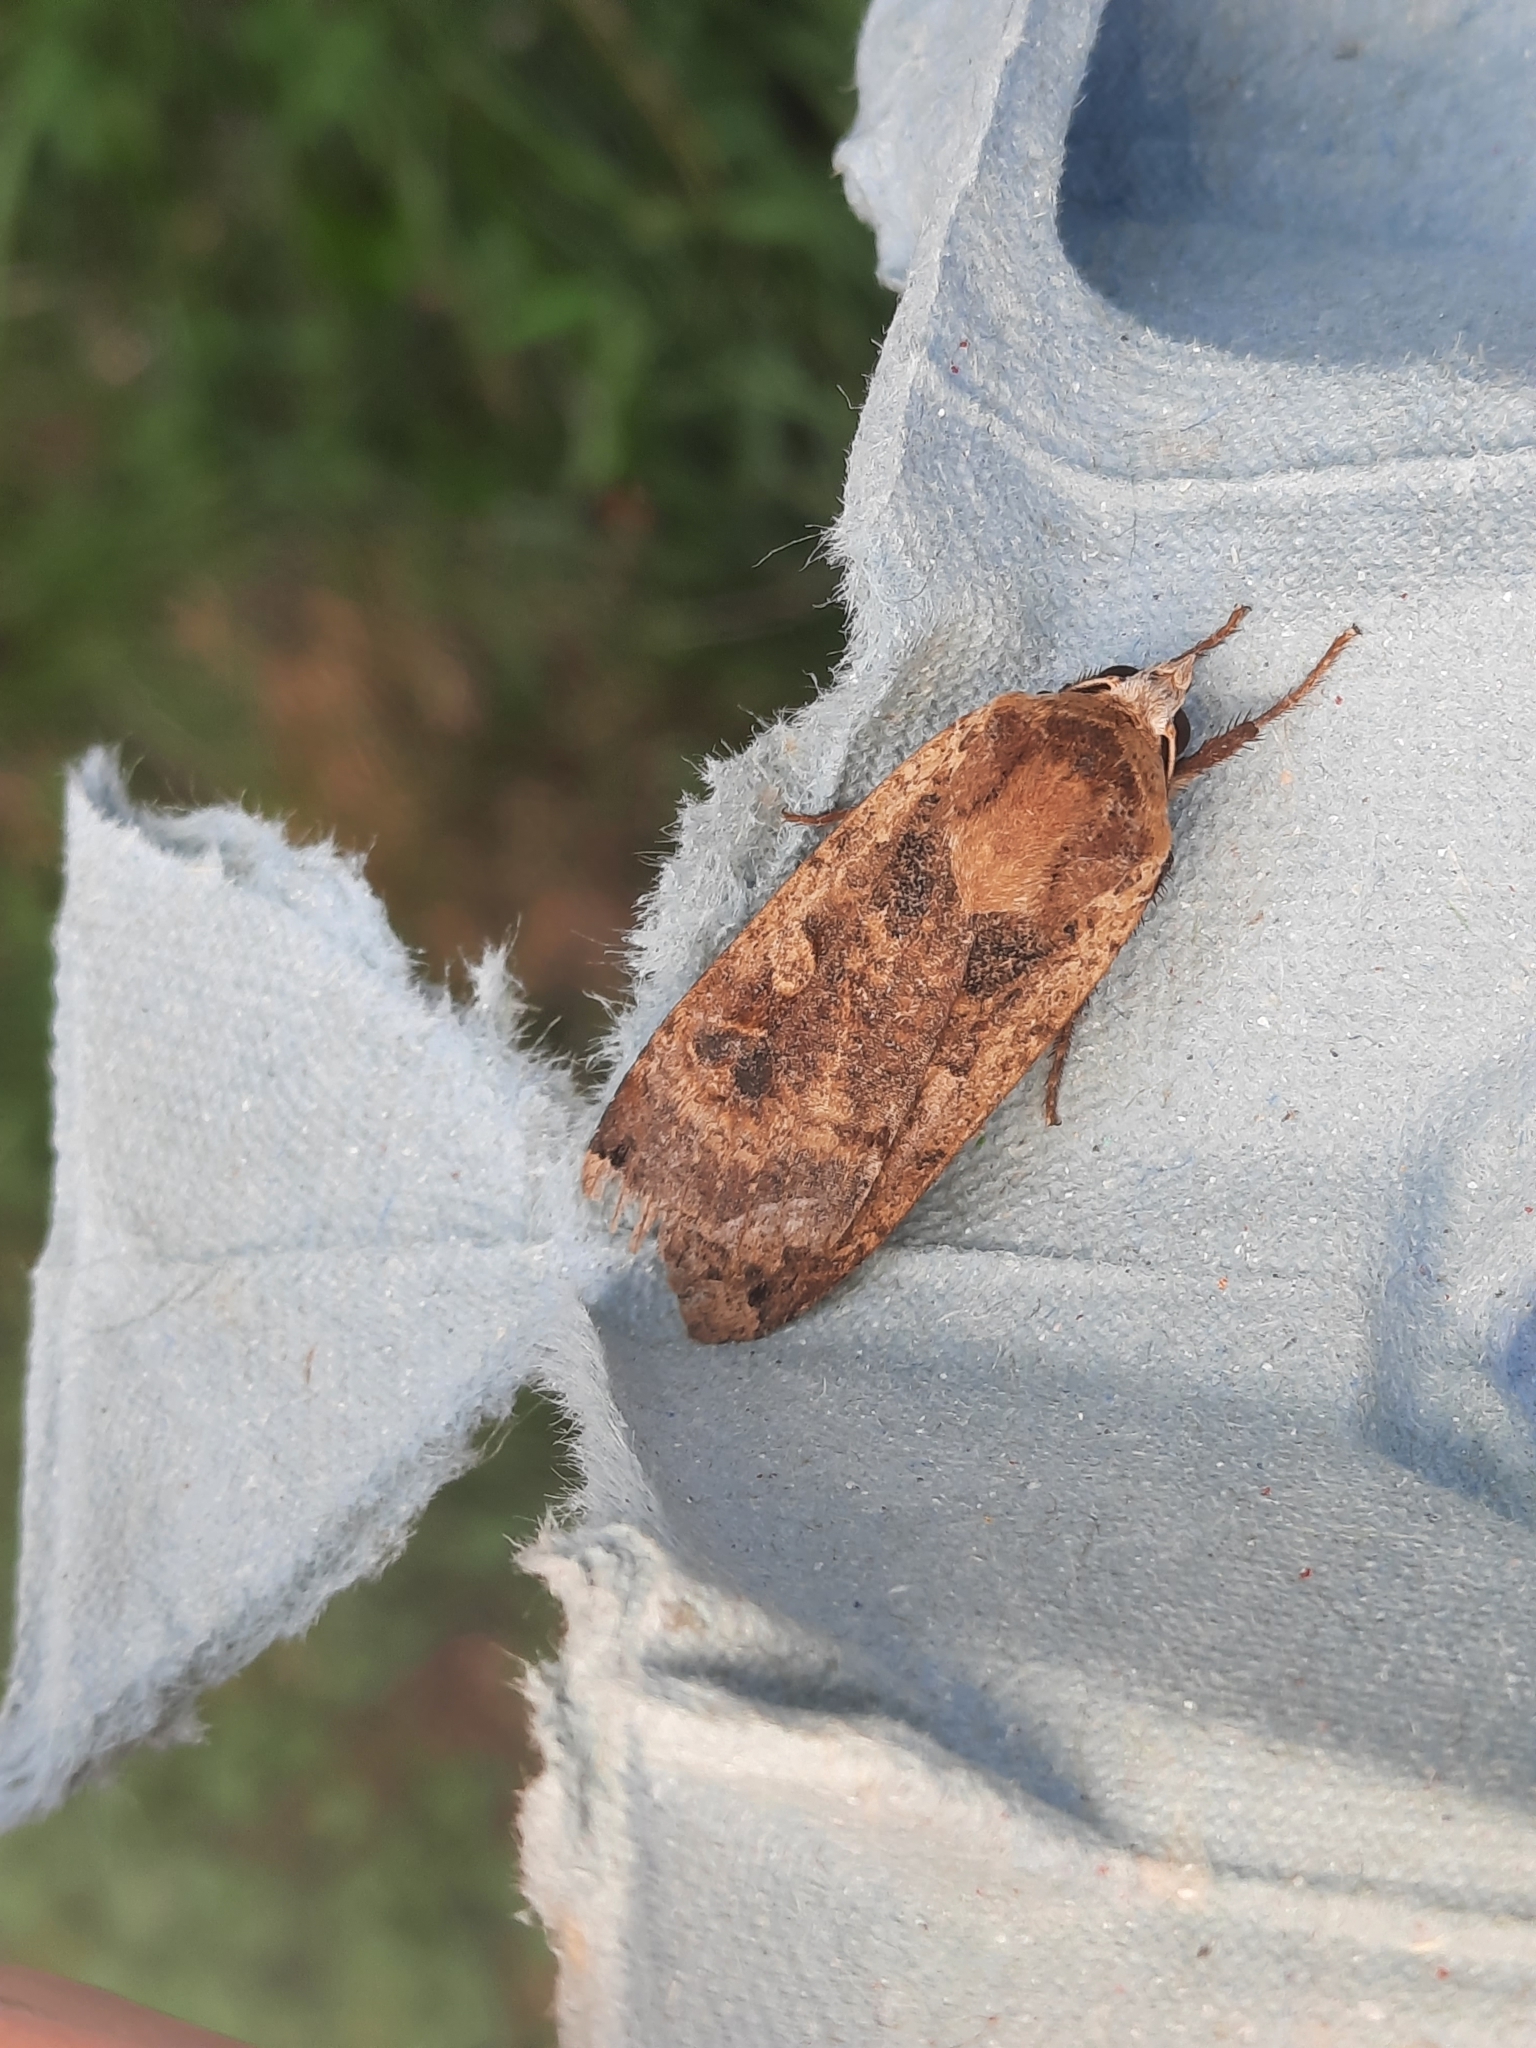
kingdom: Animalia
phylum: Arthropoda
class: Insecta
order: Lepidoptera
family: Noctuidae
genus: Noctua
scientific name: Noctua pronuba
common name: Large yellow underwing
